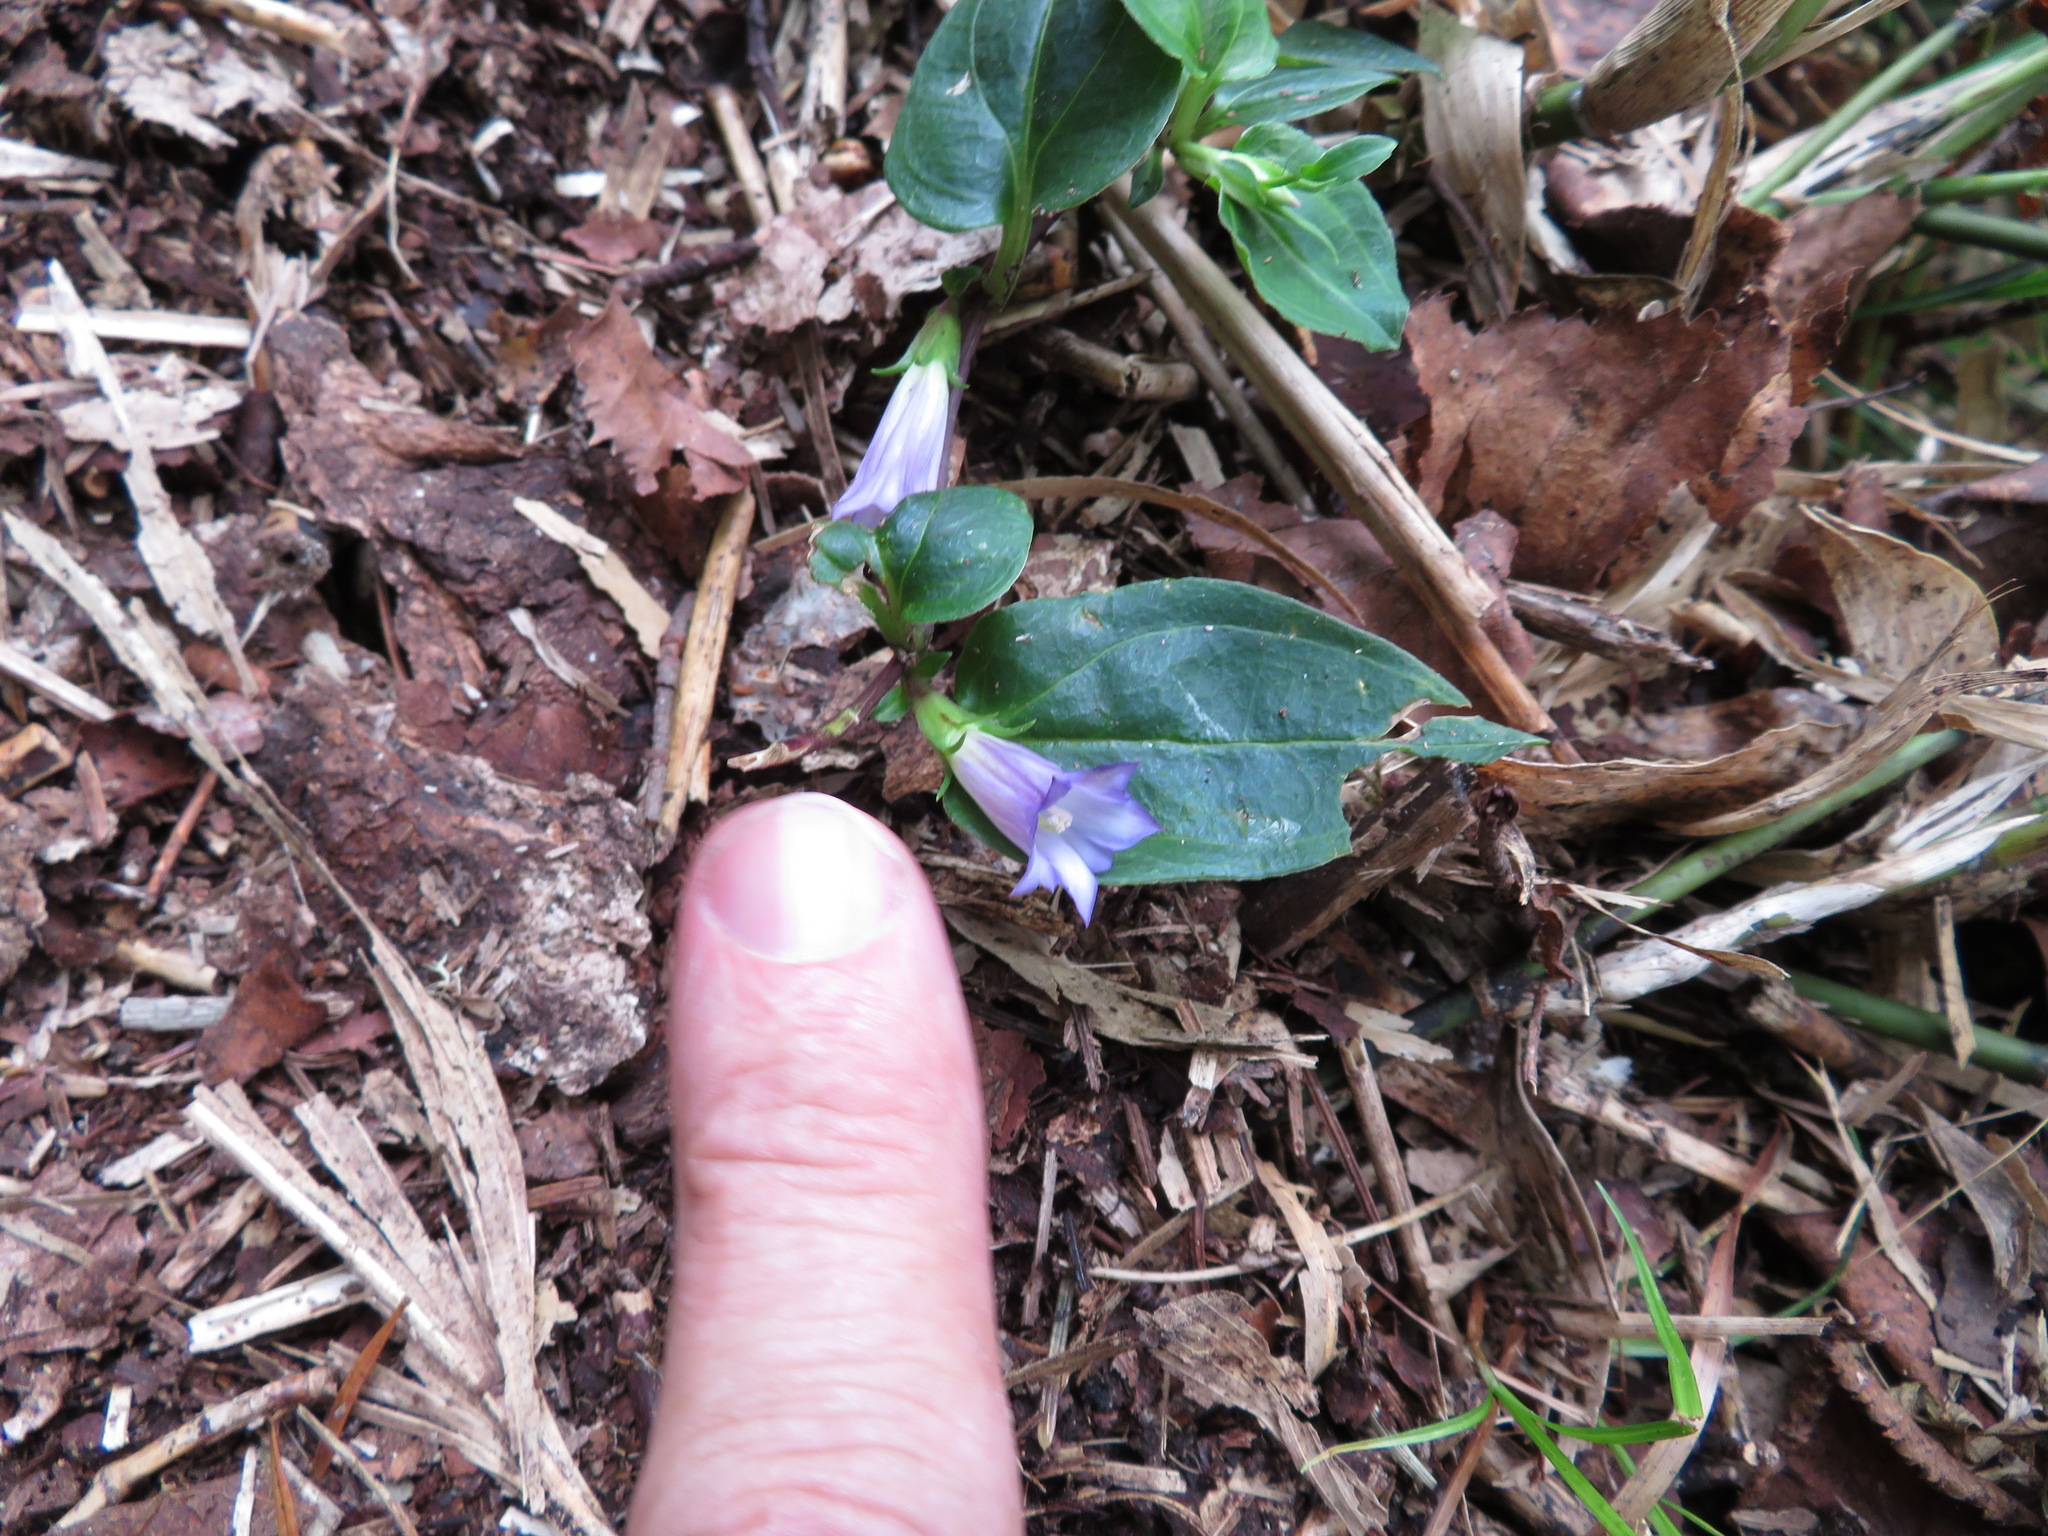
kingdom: Plantae
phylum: Tracheophyta
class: Magnoliopsida
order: Gentianales
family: Gentianaceae
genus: Tripterospermum
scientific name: Tripterospermum trinervium
